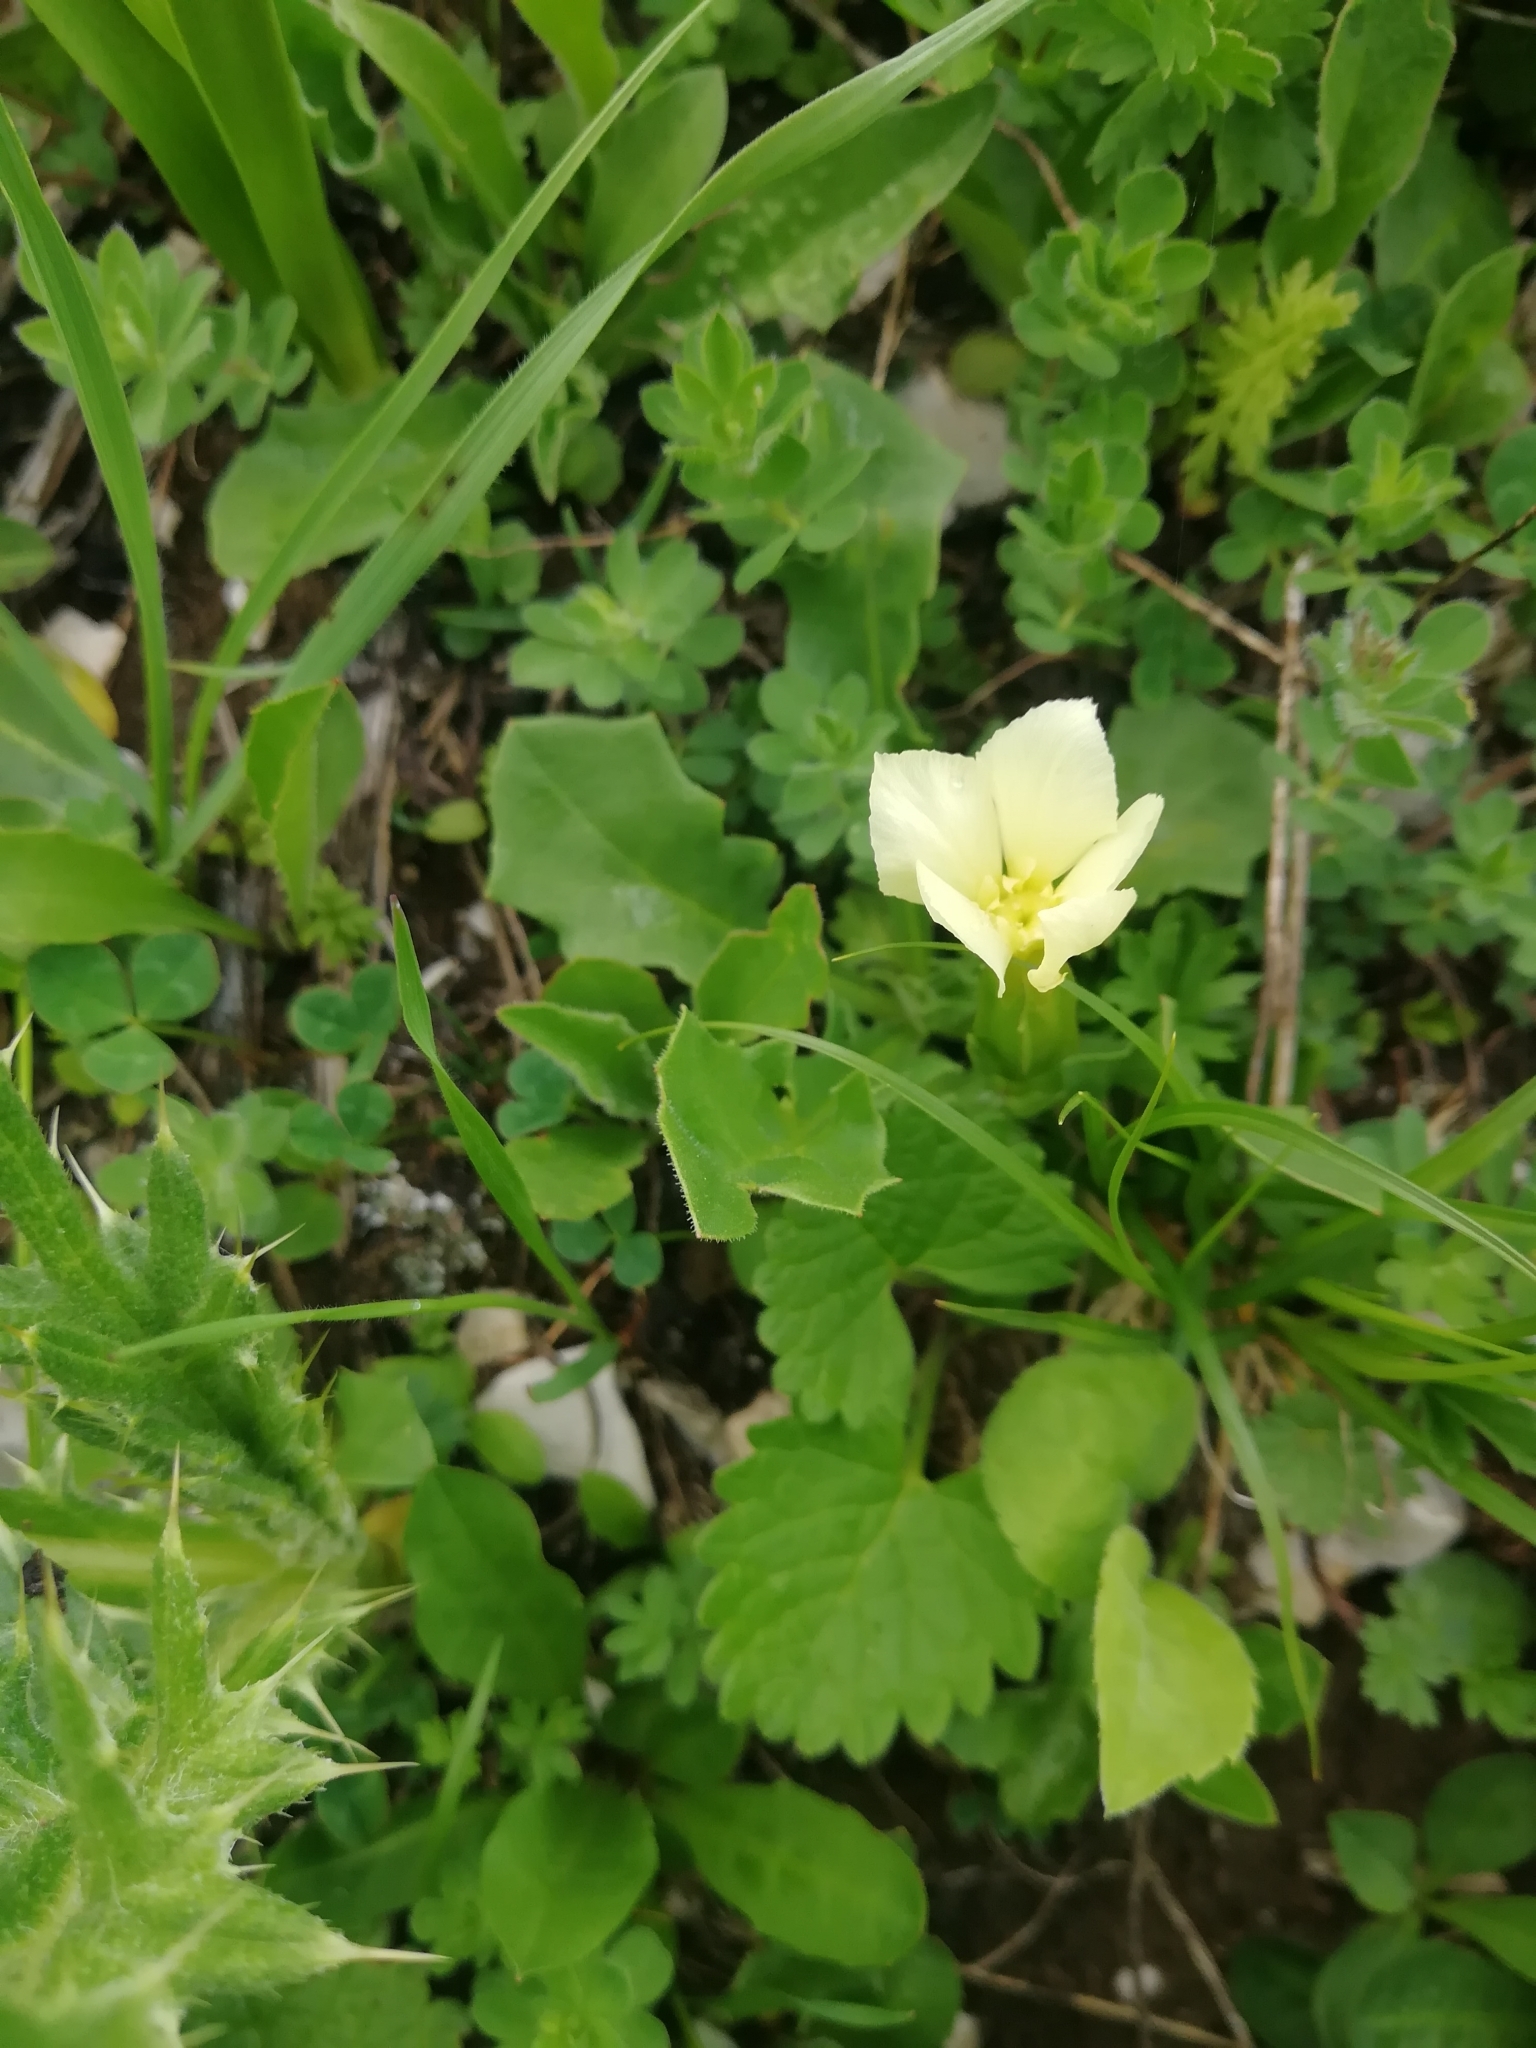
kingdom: Plantae
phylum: Tracheophyta
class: Magnoliopsida
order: Gentianales
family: Gentianaceae
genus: Gentiana
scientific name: Gentiana verna
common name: Spring gentian
